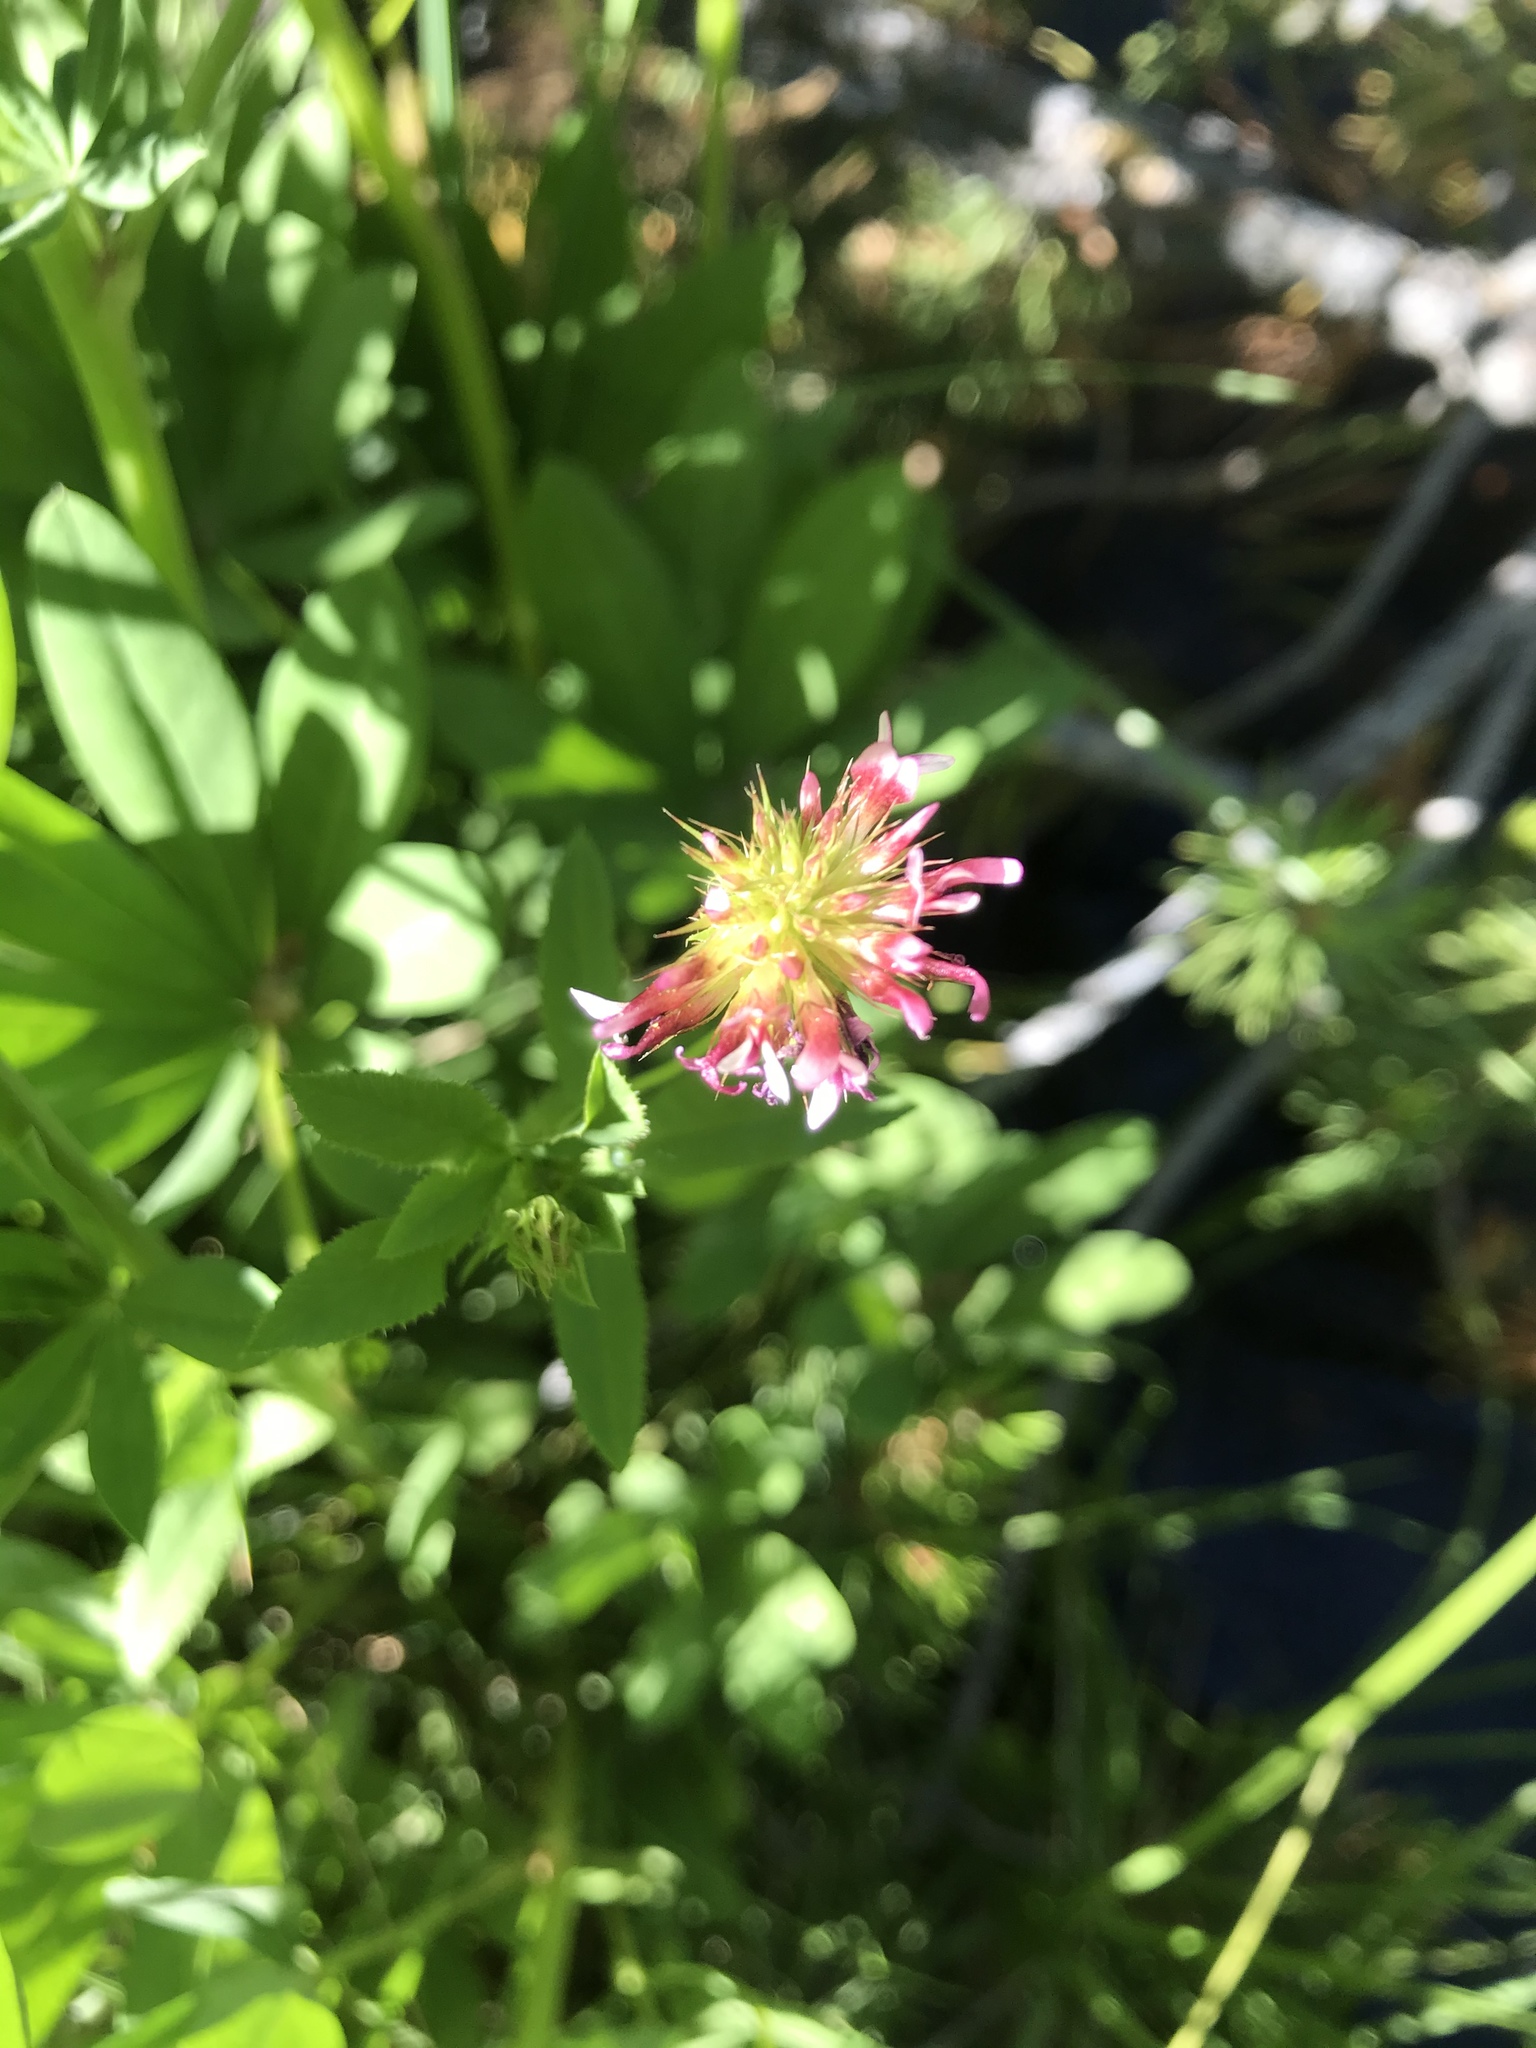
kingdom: Plantae
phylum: Tracheophyta
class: Magnoliopsida
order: Fabales
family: Fabaceae
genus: Trifolium
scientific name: Trifolium wormskioldii
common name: Springbank clover
